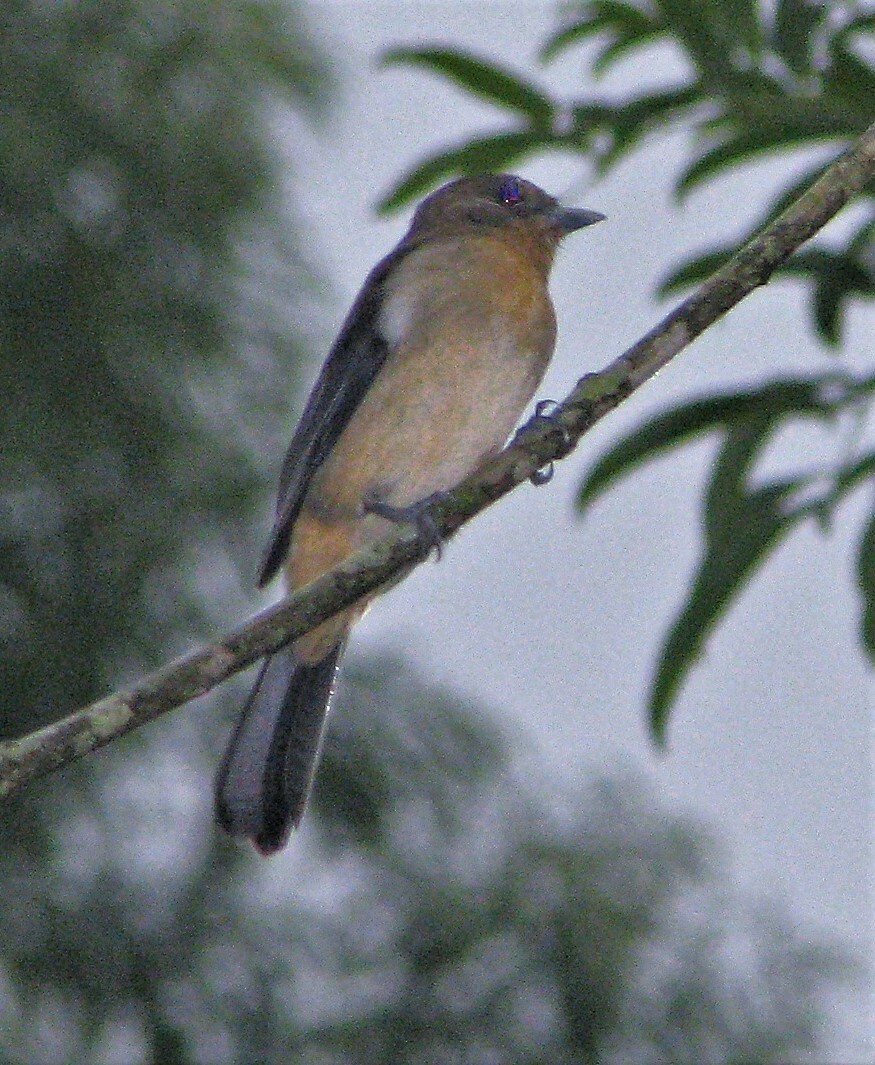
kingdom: Animalia
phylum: Chordata
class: Aves
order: Passeriformes
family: Thraupidae
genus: Trichothraupis
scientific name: Trichothraupis melanops
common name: Black-goggled tanager
